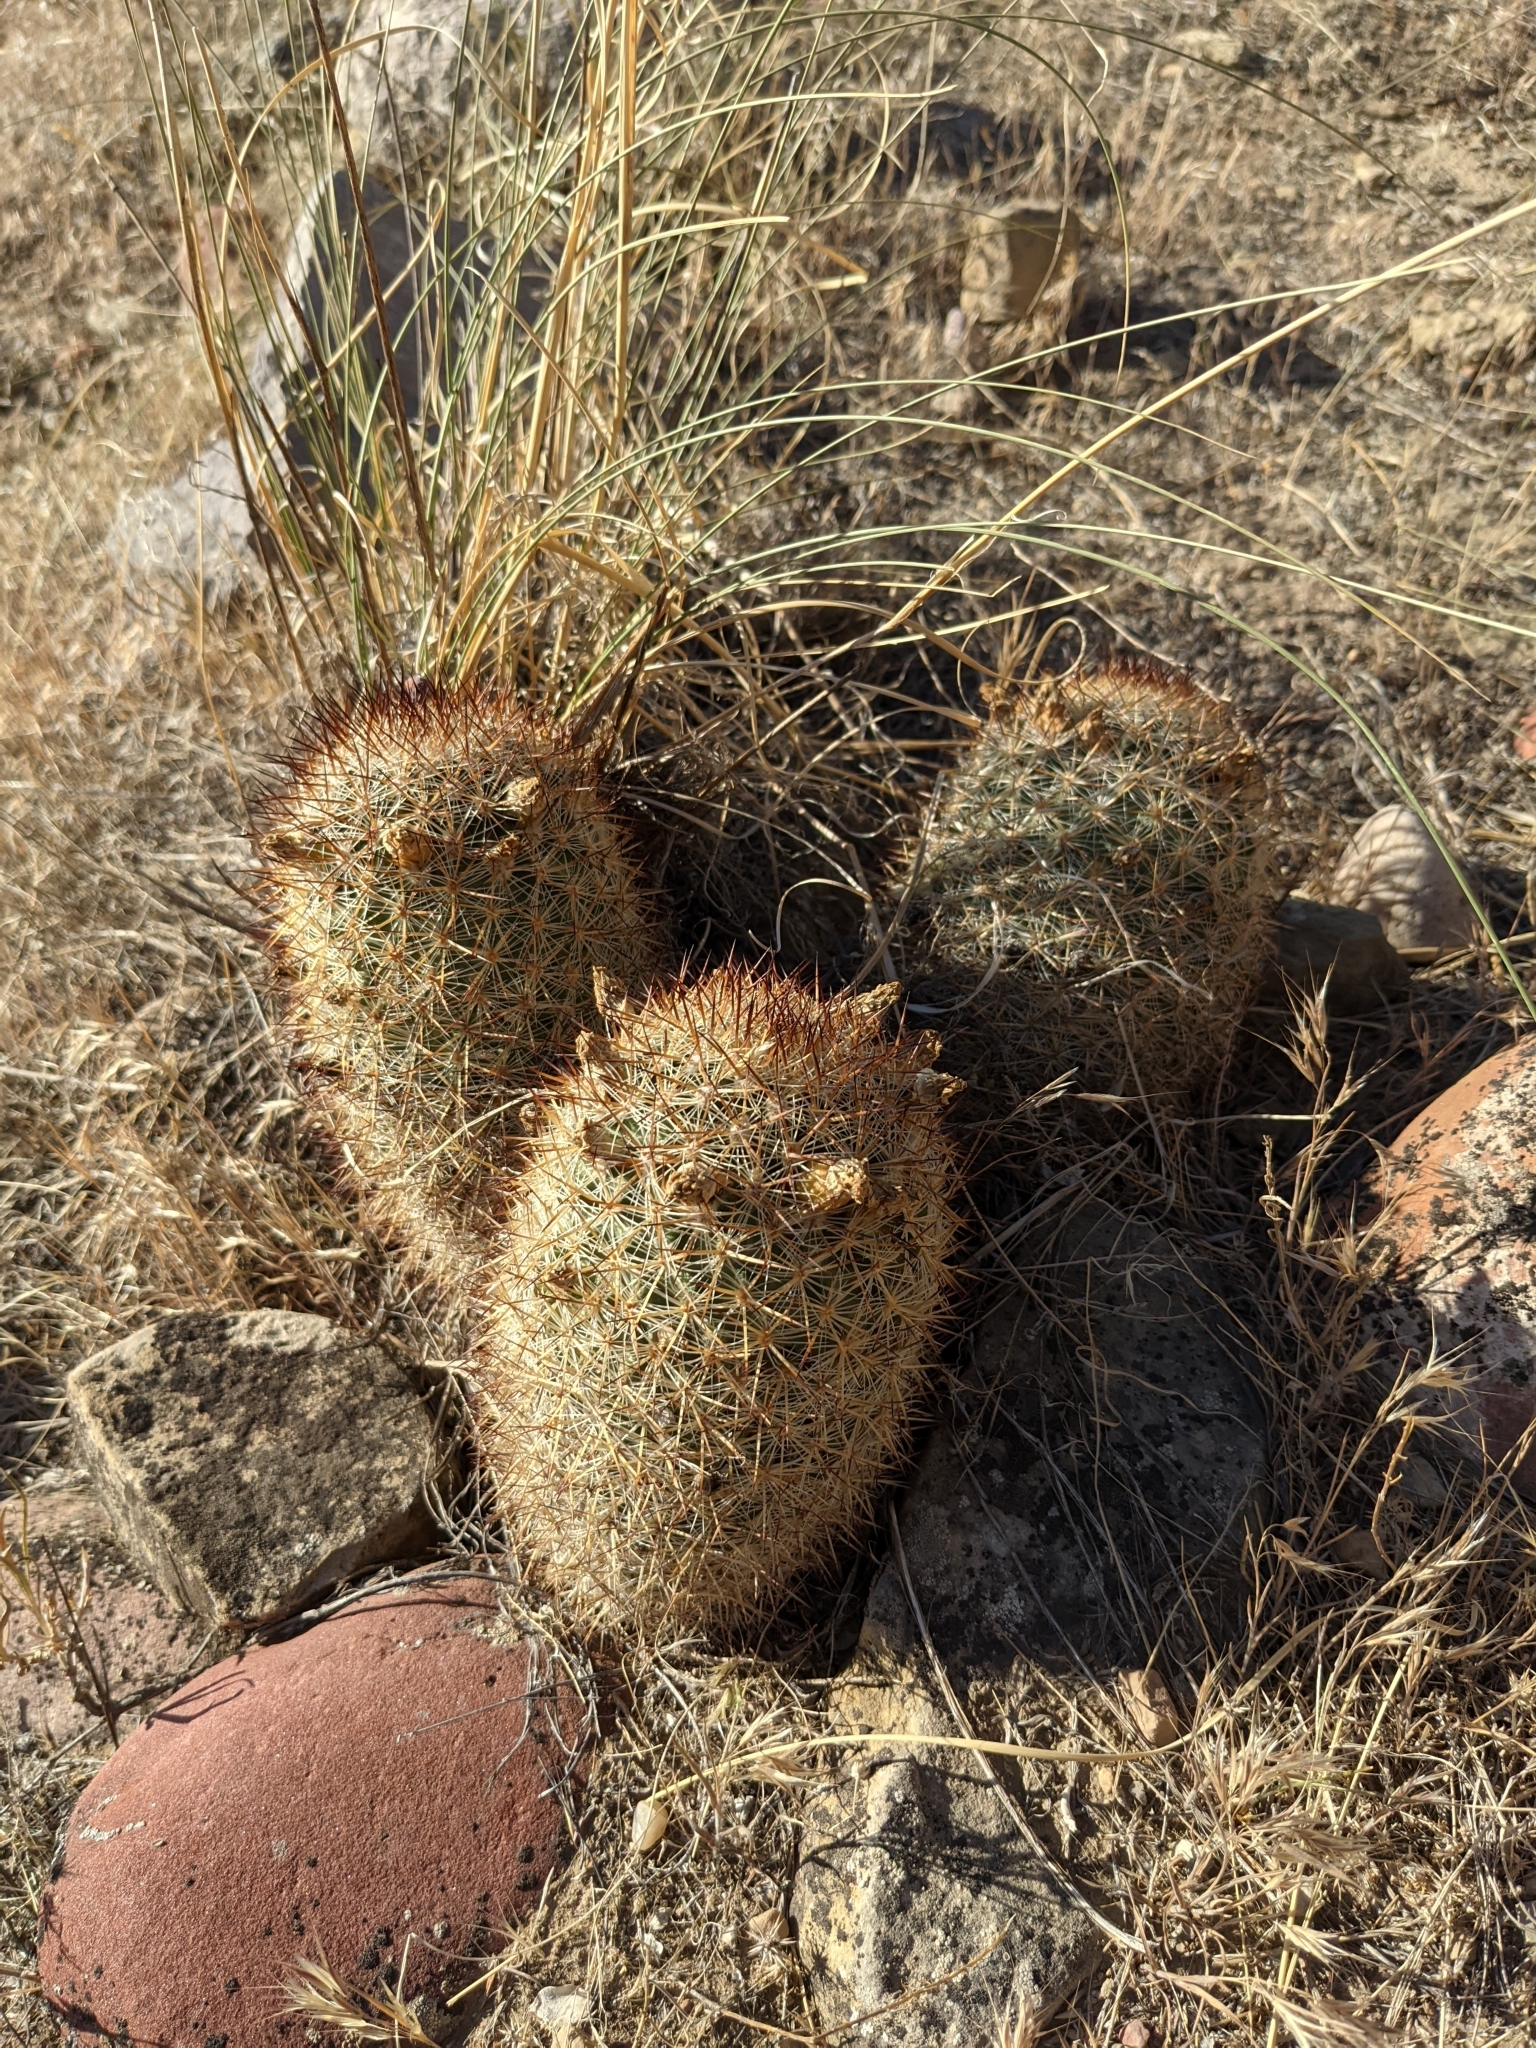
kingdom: Plantae
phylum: Tracheophyta
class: Magnoliopsida
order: Caryophyllales
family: Cactaceae
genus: Pediocactus
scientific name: Pediocactus simpsonii
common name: Simpson's hedgehog cactus
